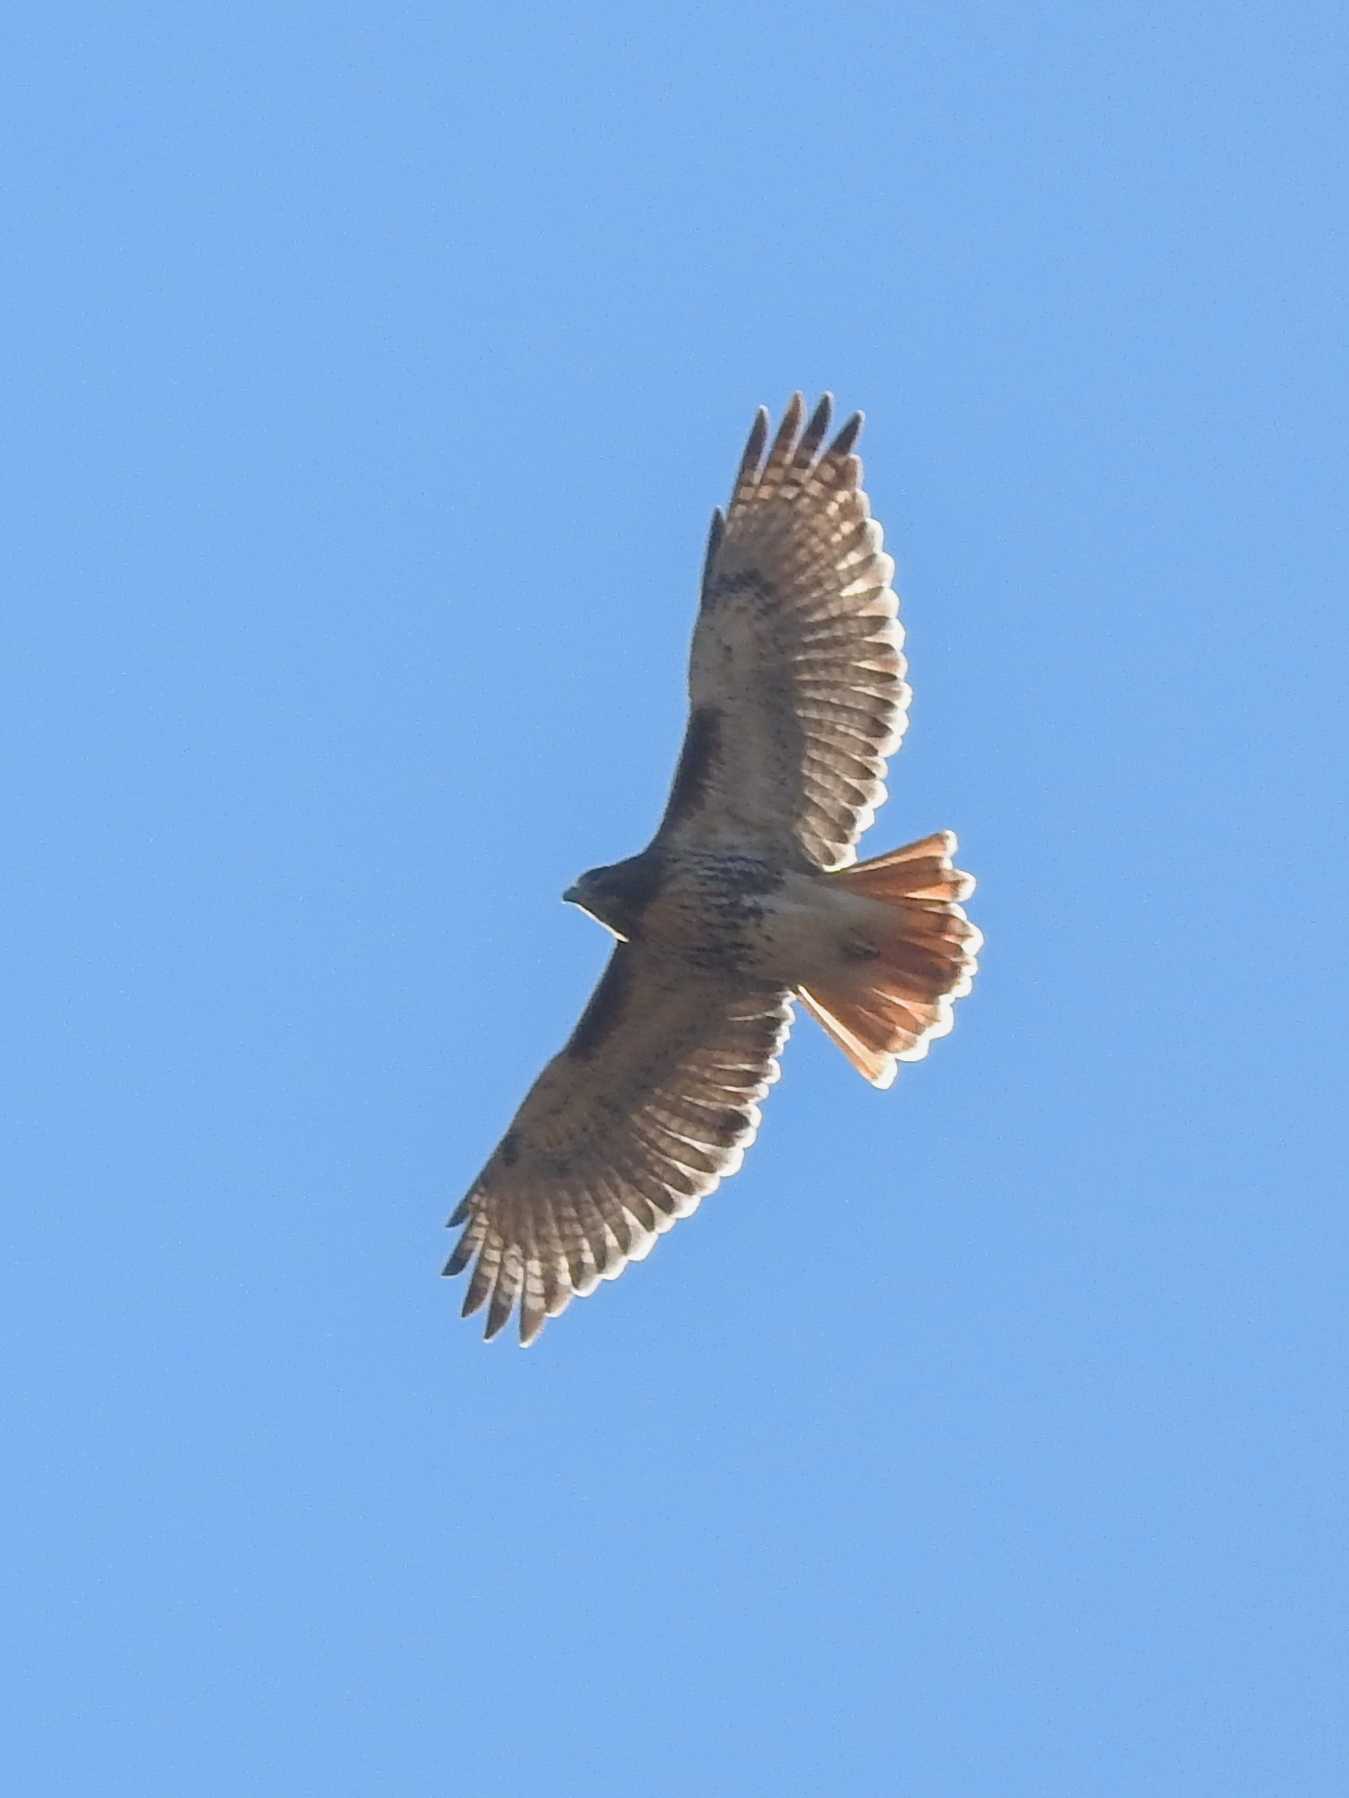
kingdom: Animalia
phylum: Chordata
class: Aves
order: Accipitriformes
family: Accipitridae
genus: Buteo
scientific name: Buteo jamaicensis
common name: Red-tailed hawk
